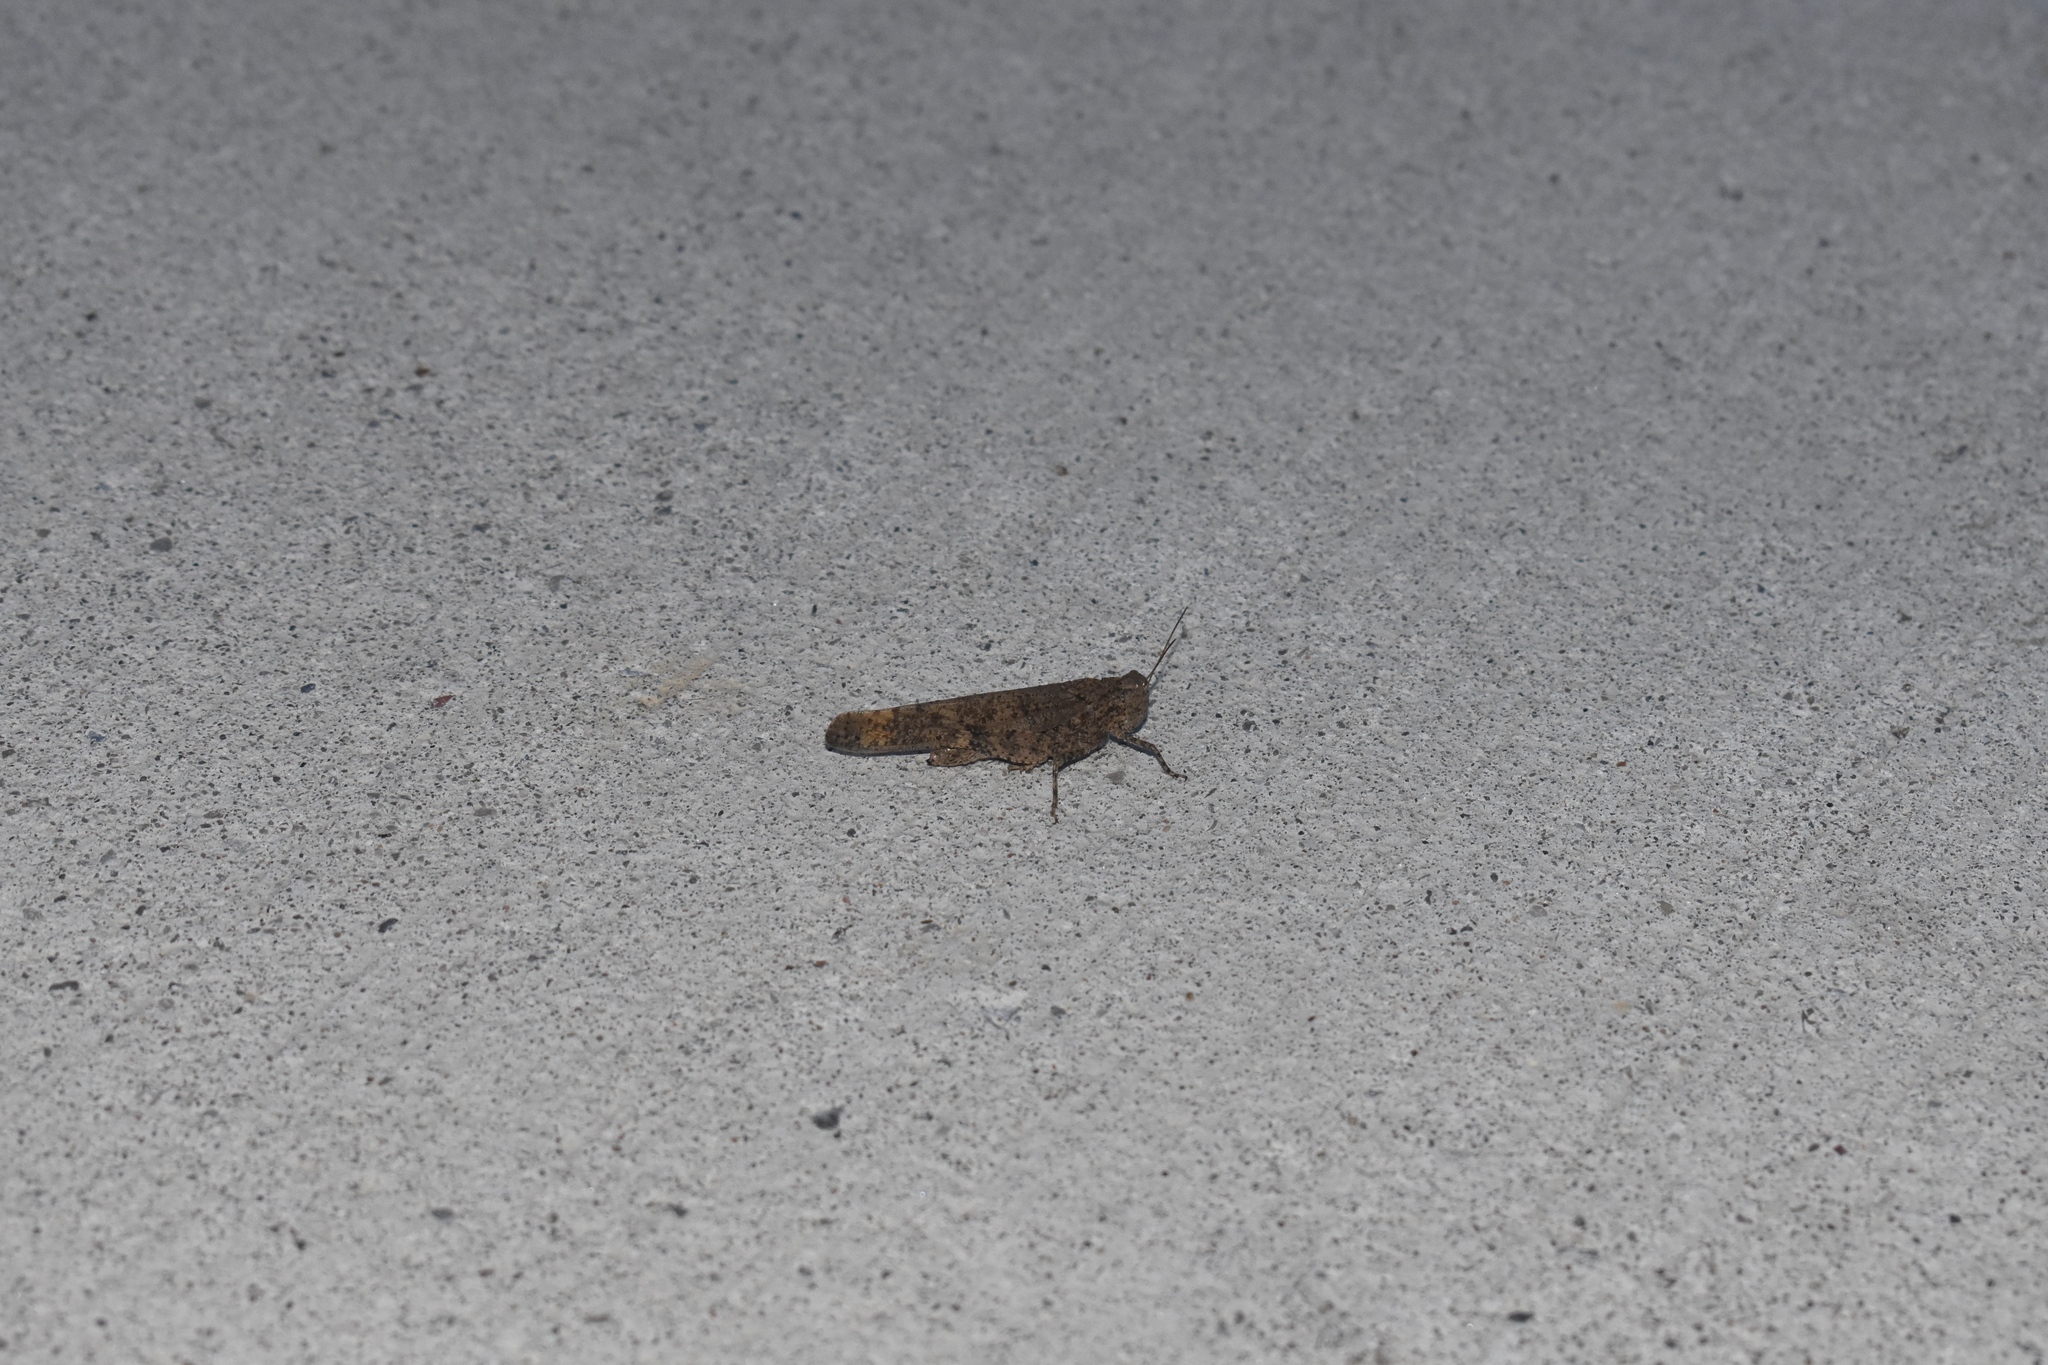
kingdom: Animalia
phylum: Arthropoda
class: Insecta
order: Orthoptera
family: Acrididae
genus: Dissosteira
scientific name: Dissosteira carolina
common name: Carolina grasshopper
